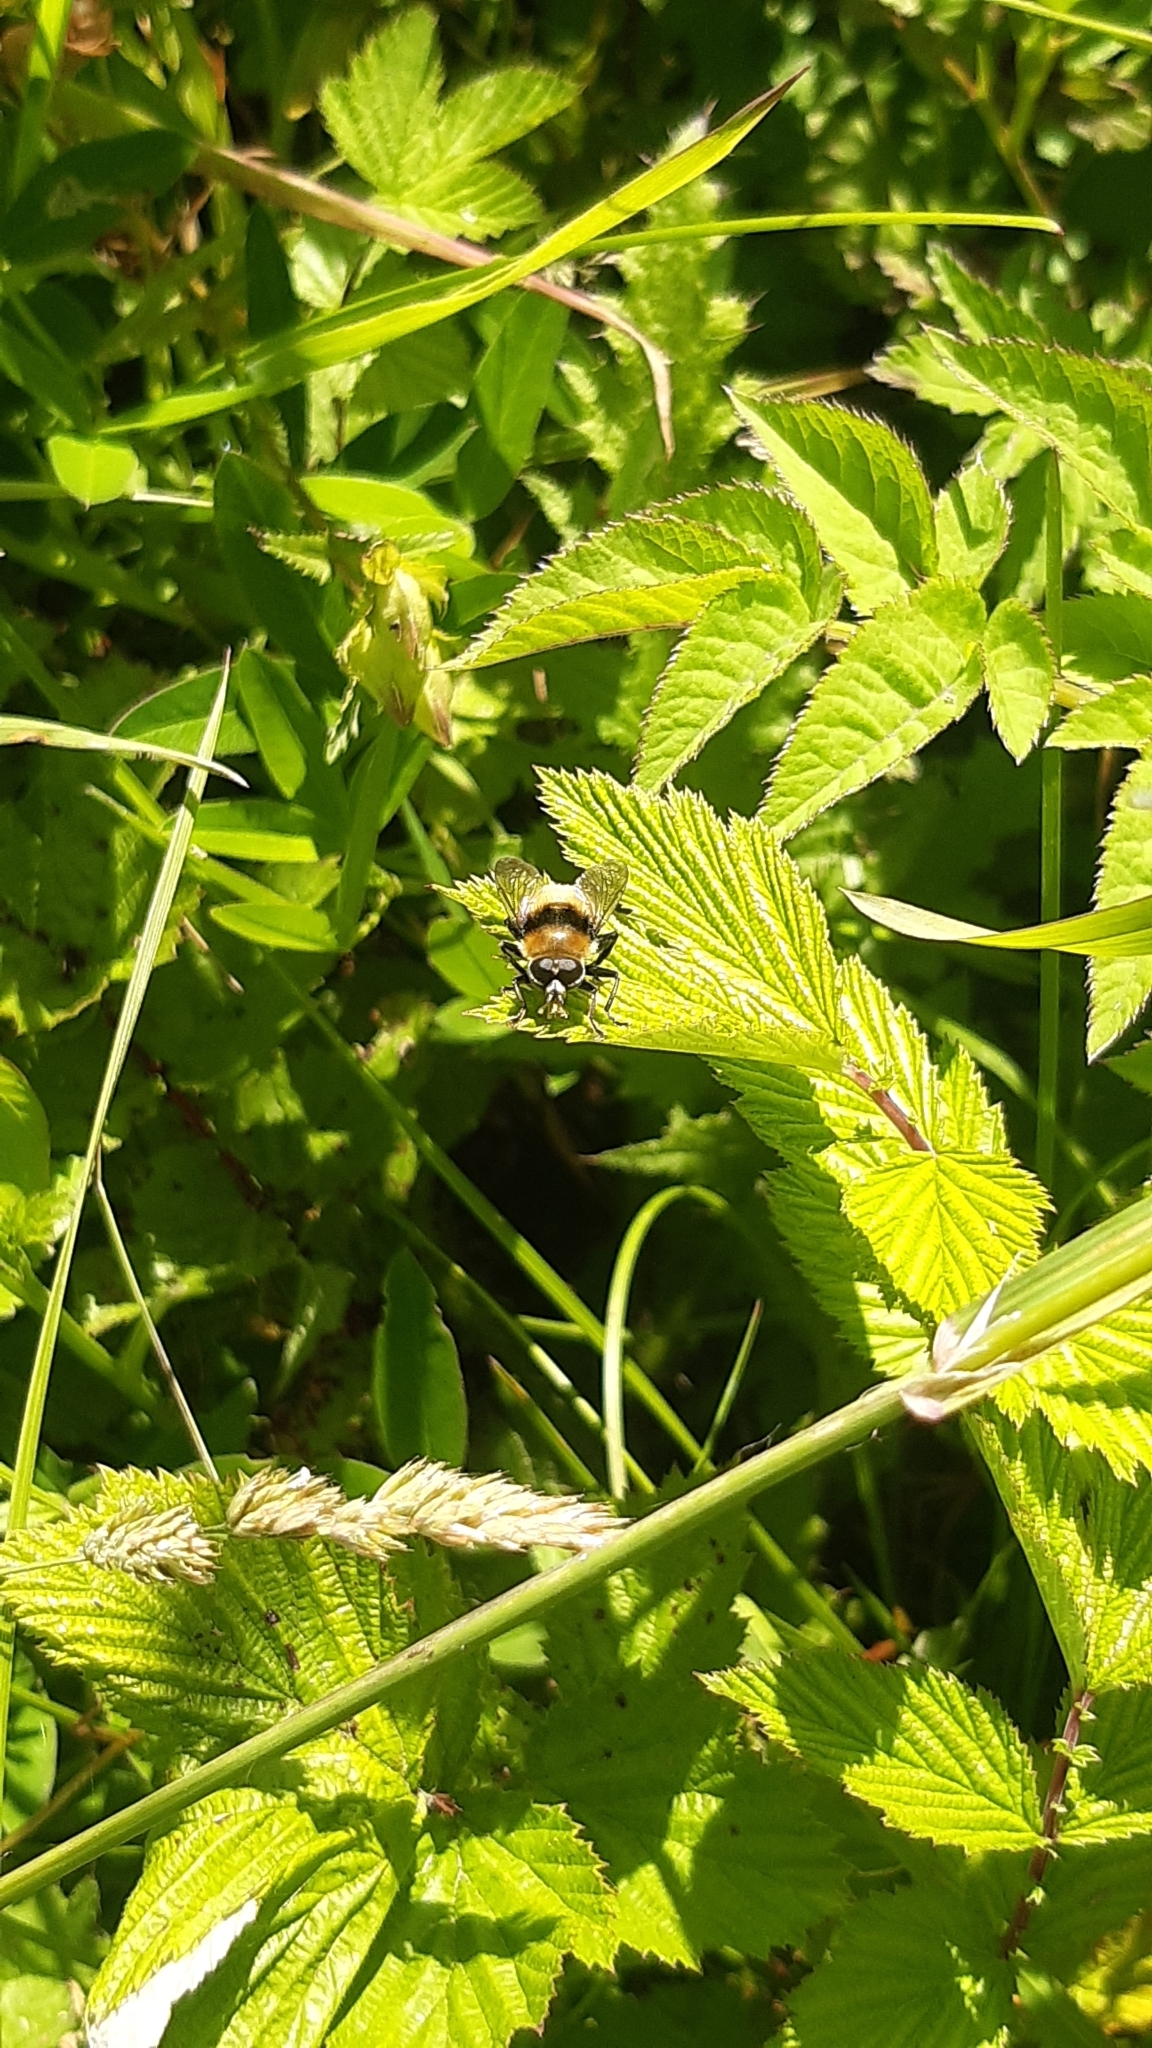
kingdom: Animalia
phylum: Arthropoda
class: Insecta
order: Diptera
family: Syrphidae
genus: Merodon
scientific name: Merodon equestris
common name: Greater bulb-fly
